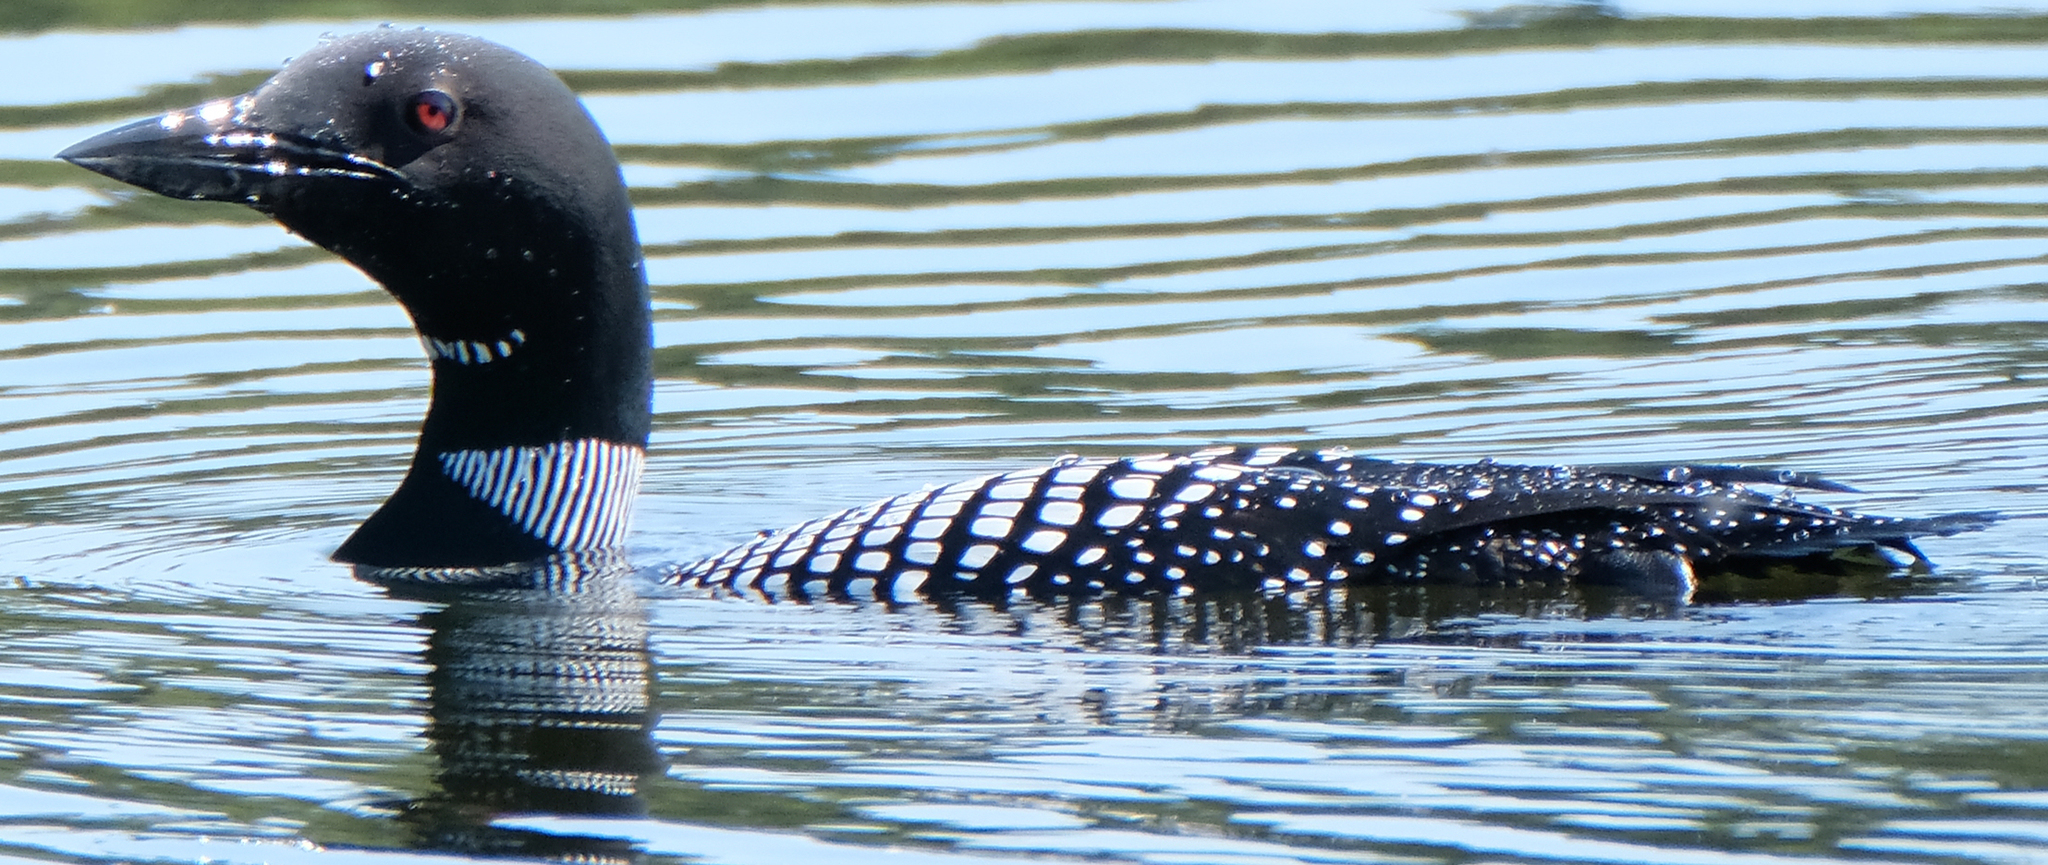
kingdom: Animalia
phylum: Chordata
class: Aves
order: Gaviiformes
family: Gaviidae
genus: Gavia
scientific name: Gavia immer
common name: Common loon
